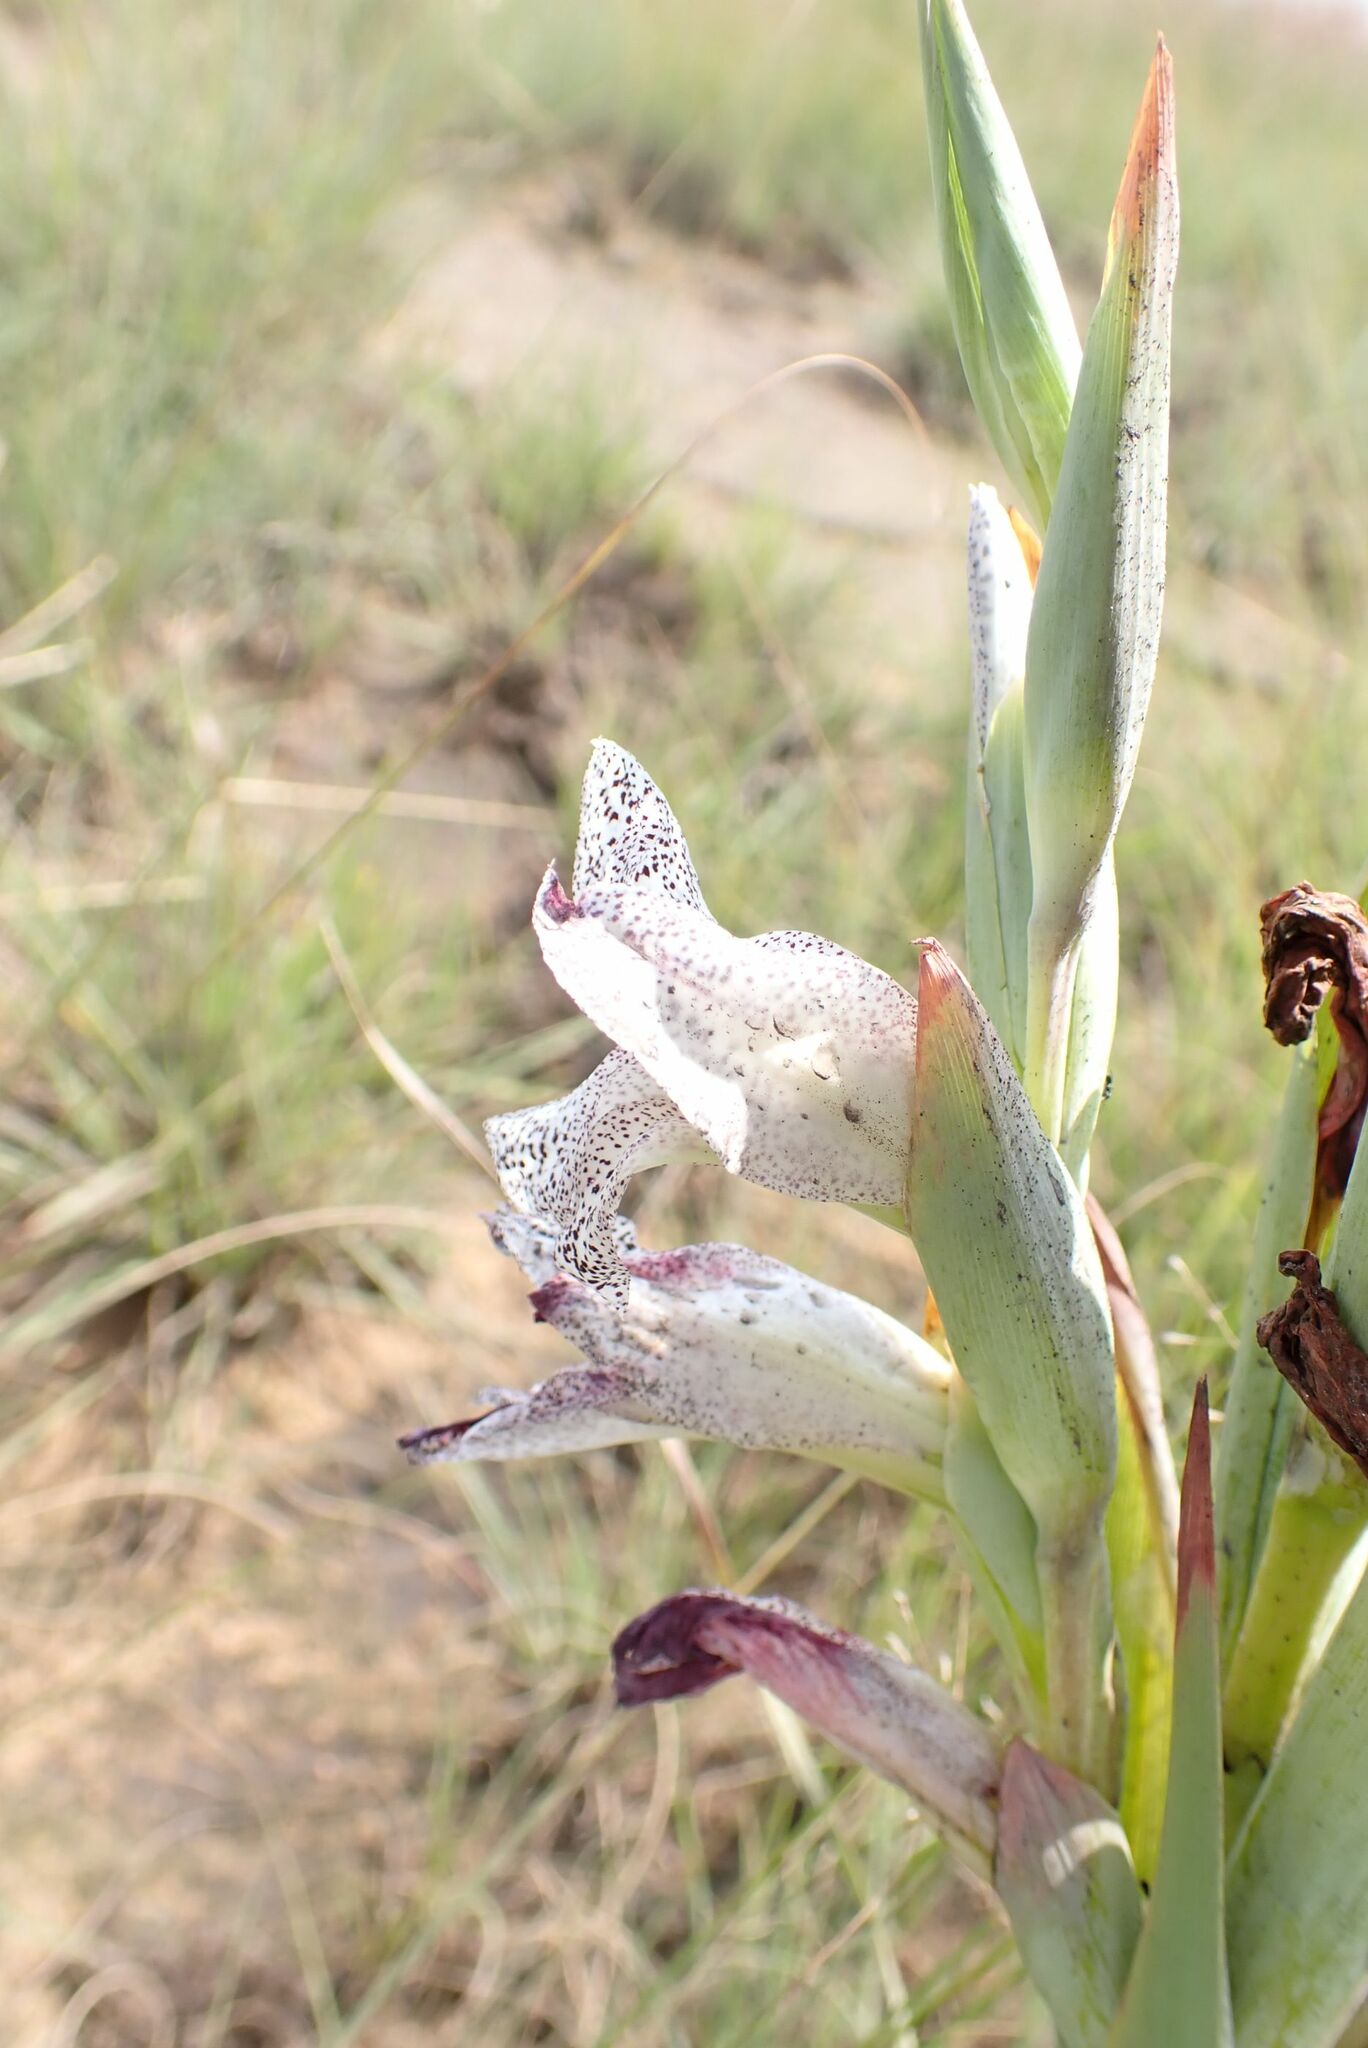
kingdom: Plantae
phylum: Tracheophyta
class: Liliopsida
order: Asparagales
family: Iridaceae
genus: Gladiolus
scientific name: Gladiolus ecklonii
